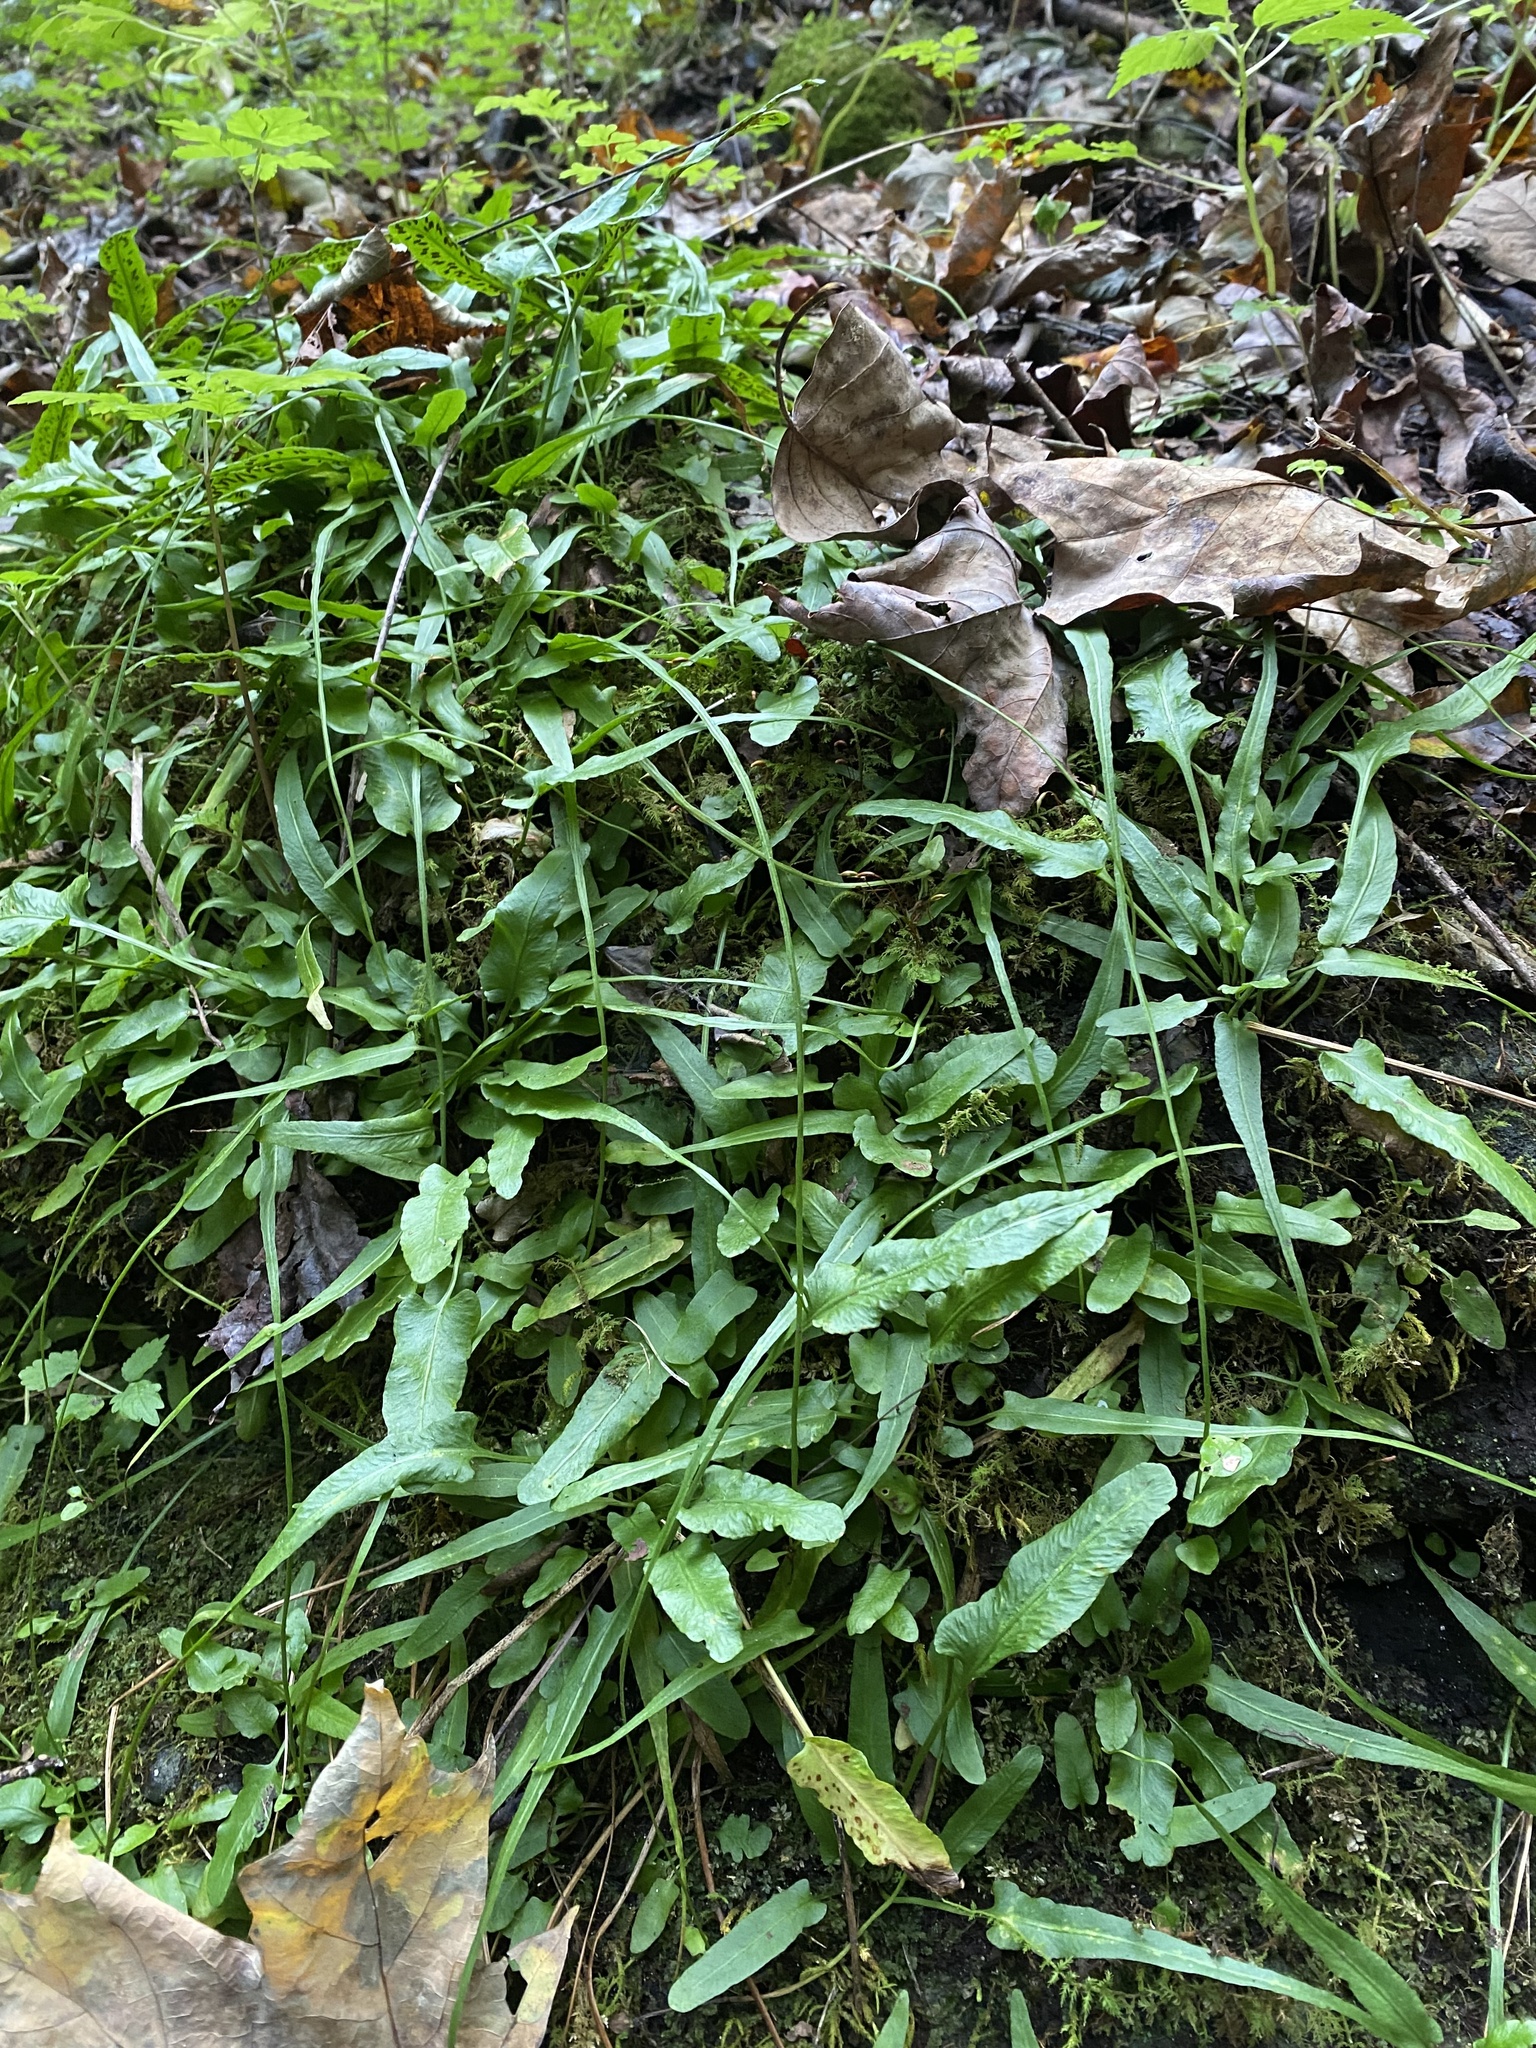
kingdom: Plantae
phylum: Tracheophyta
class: Polypodiopsida
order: Polypodiales
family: Aspleniaceae
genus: Asplenium
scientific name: Asplenium rhizophyllum
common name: Walking fern
